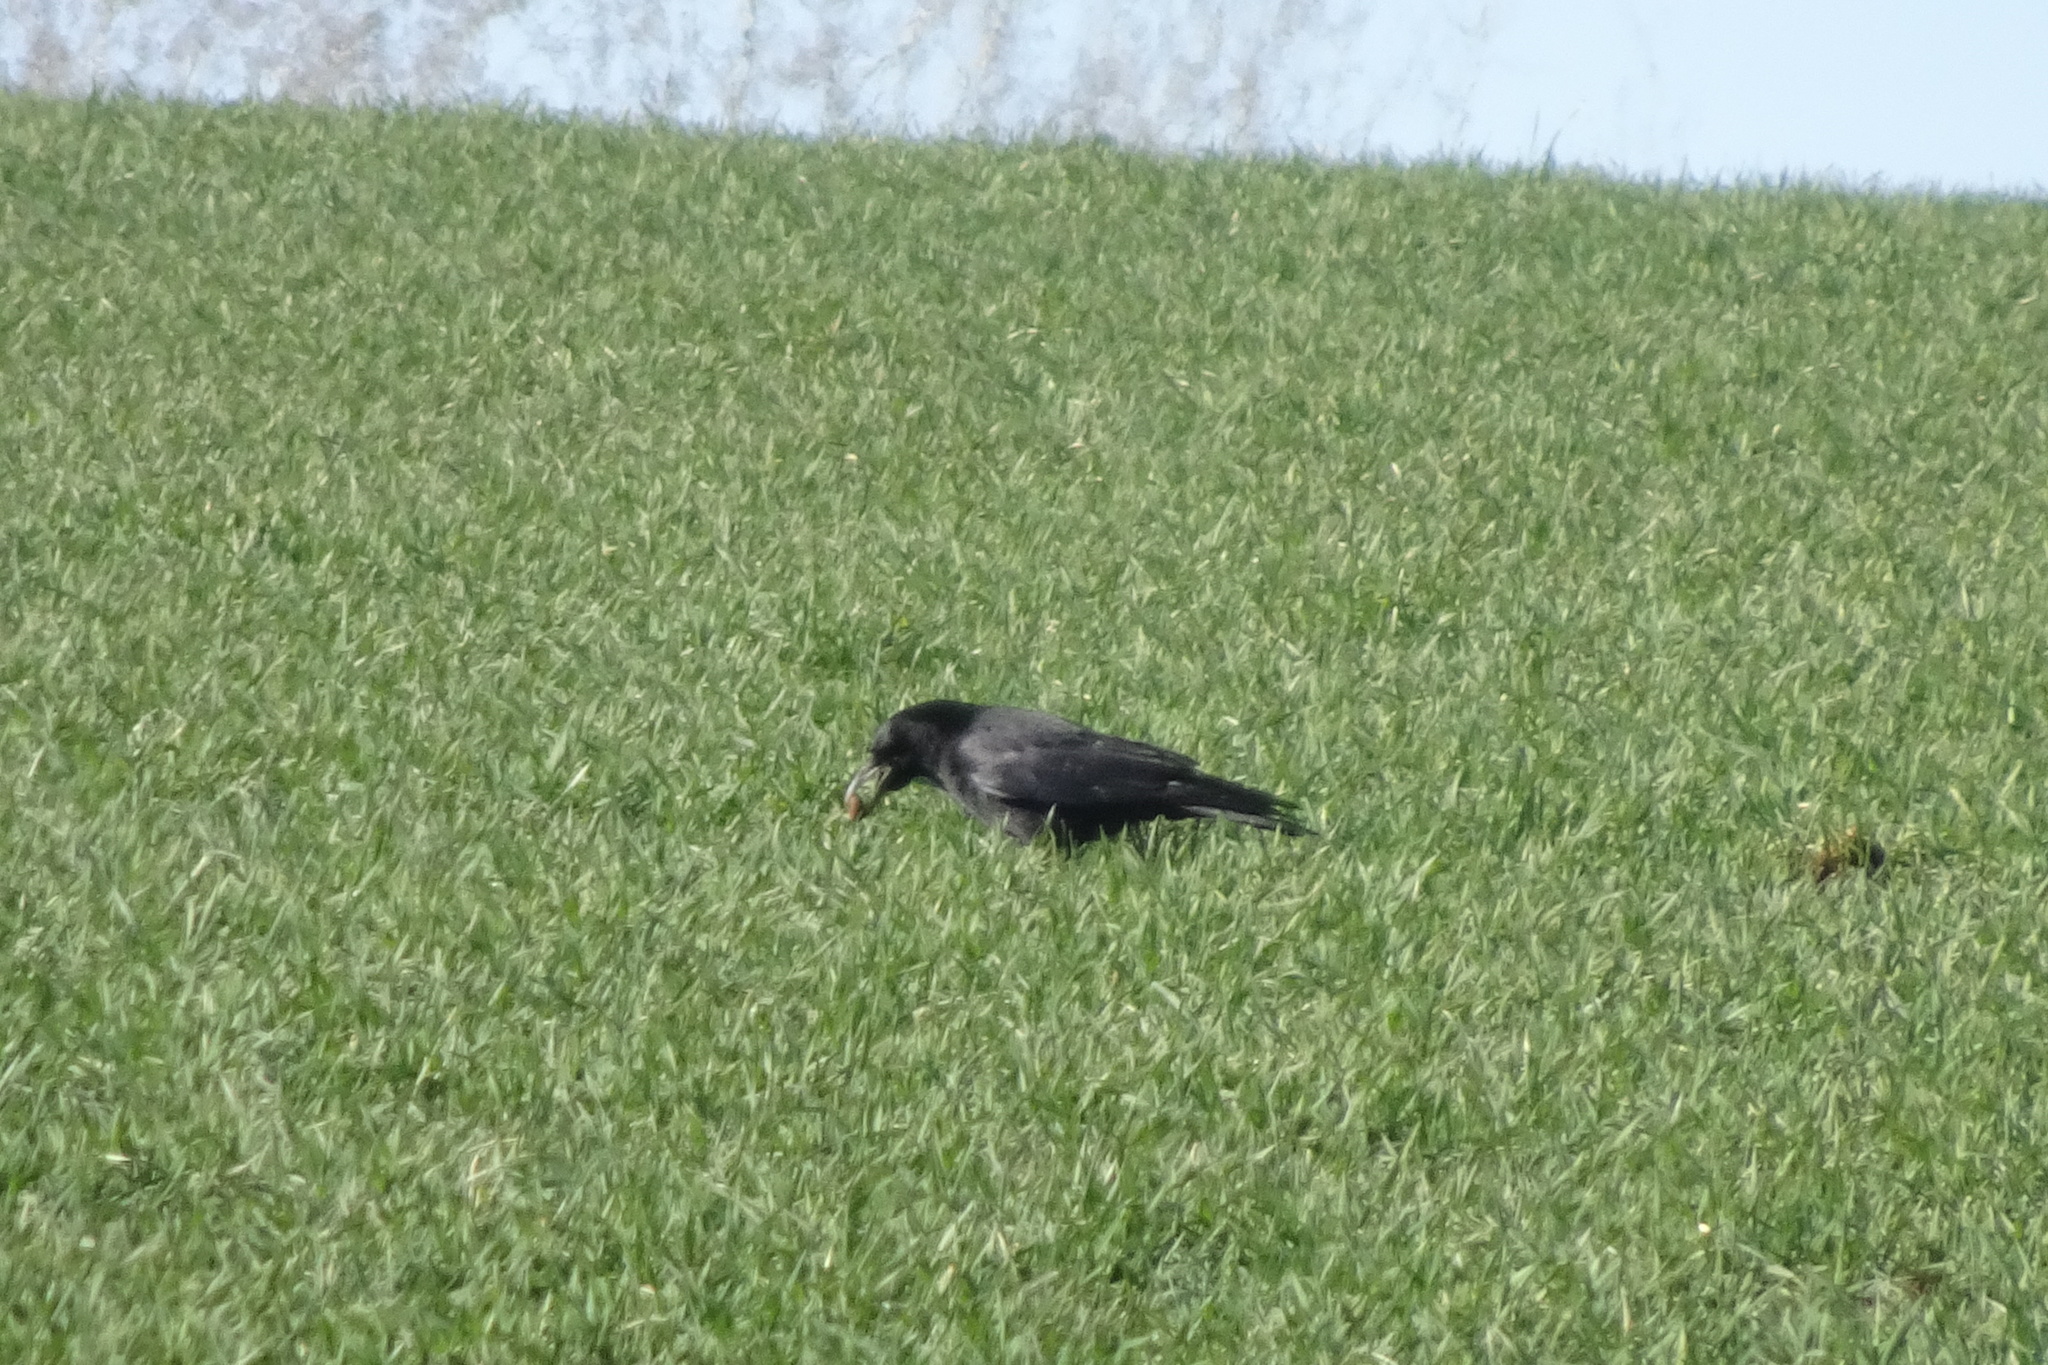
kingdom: Animalia
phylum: Chordata
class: Aves
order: Passeriformes
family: Corvidae
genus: Corvus
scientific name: Corvus
